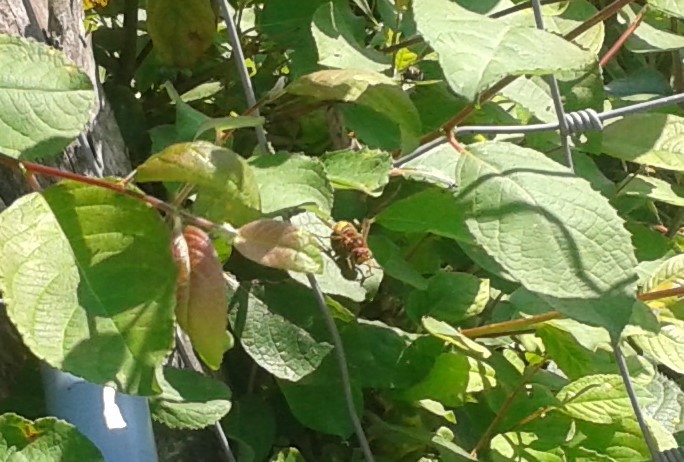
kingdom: Animalia
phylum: Arthropoda
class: Insecta
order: Hymenoptera
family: Vespidae
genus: Vespa
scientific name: Vespa crabro
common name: Hornet
